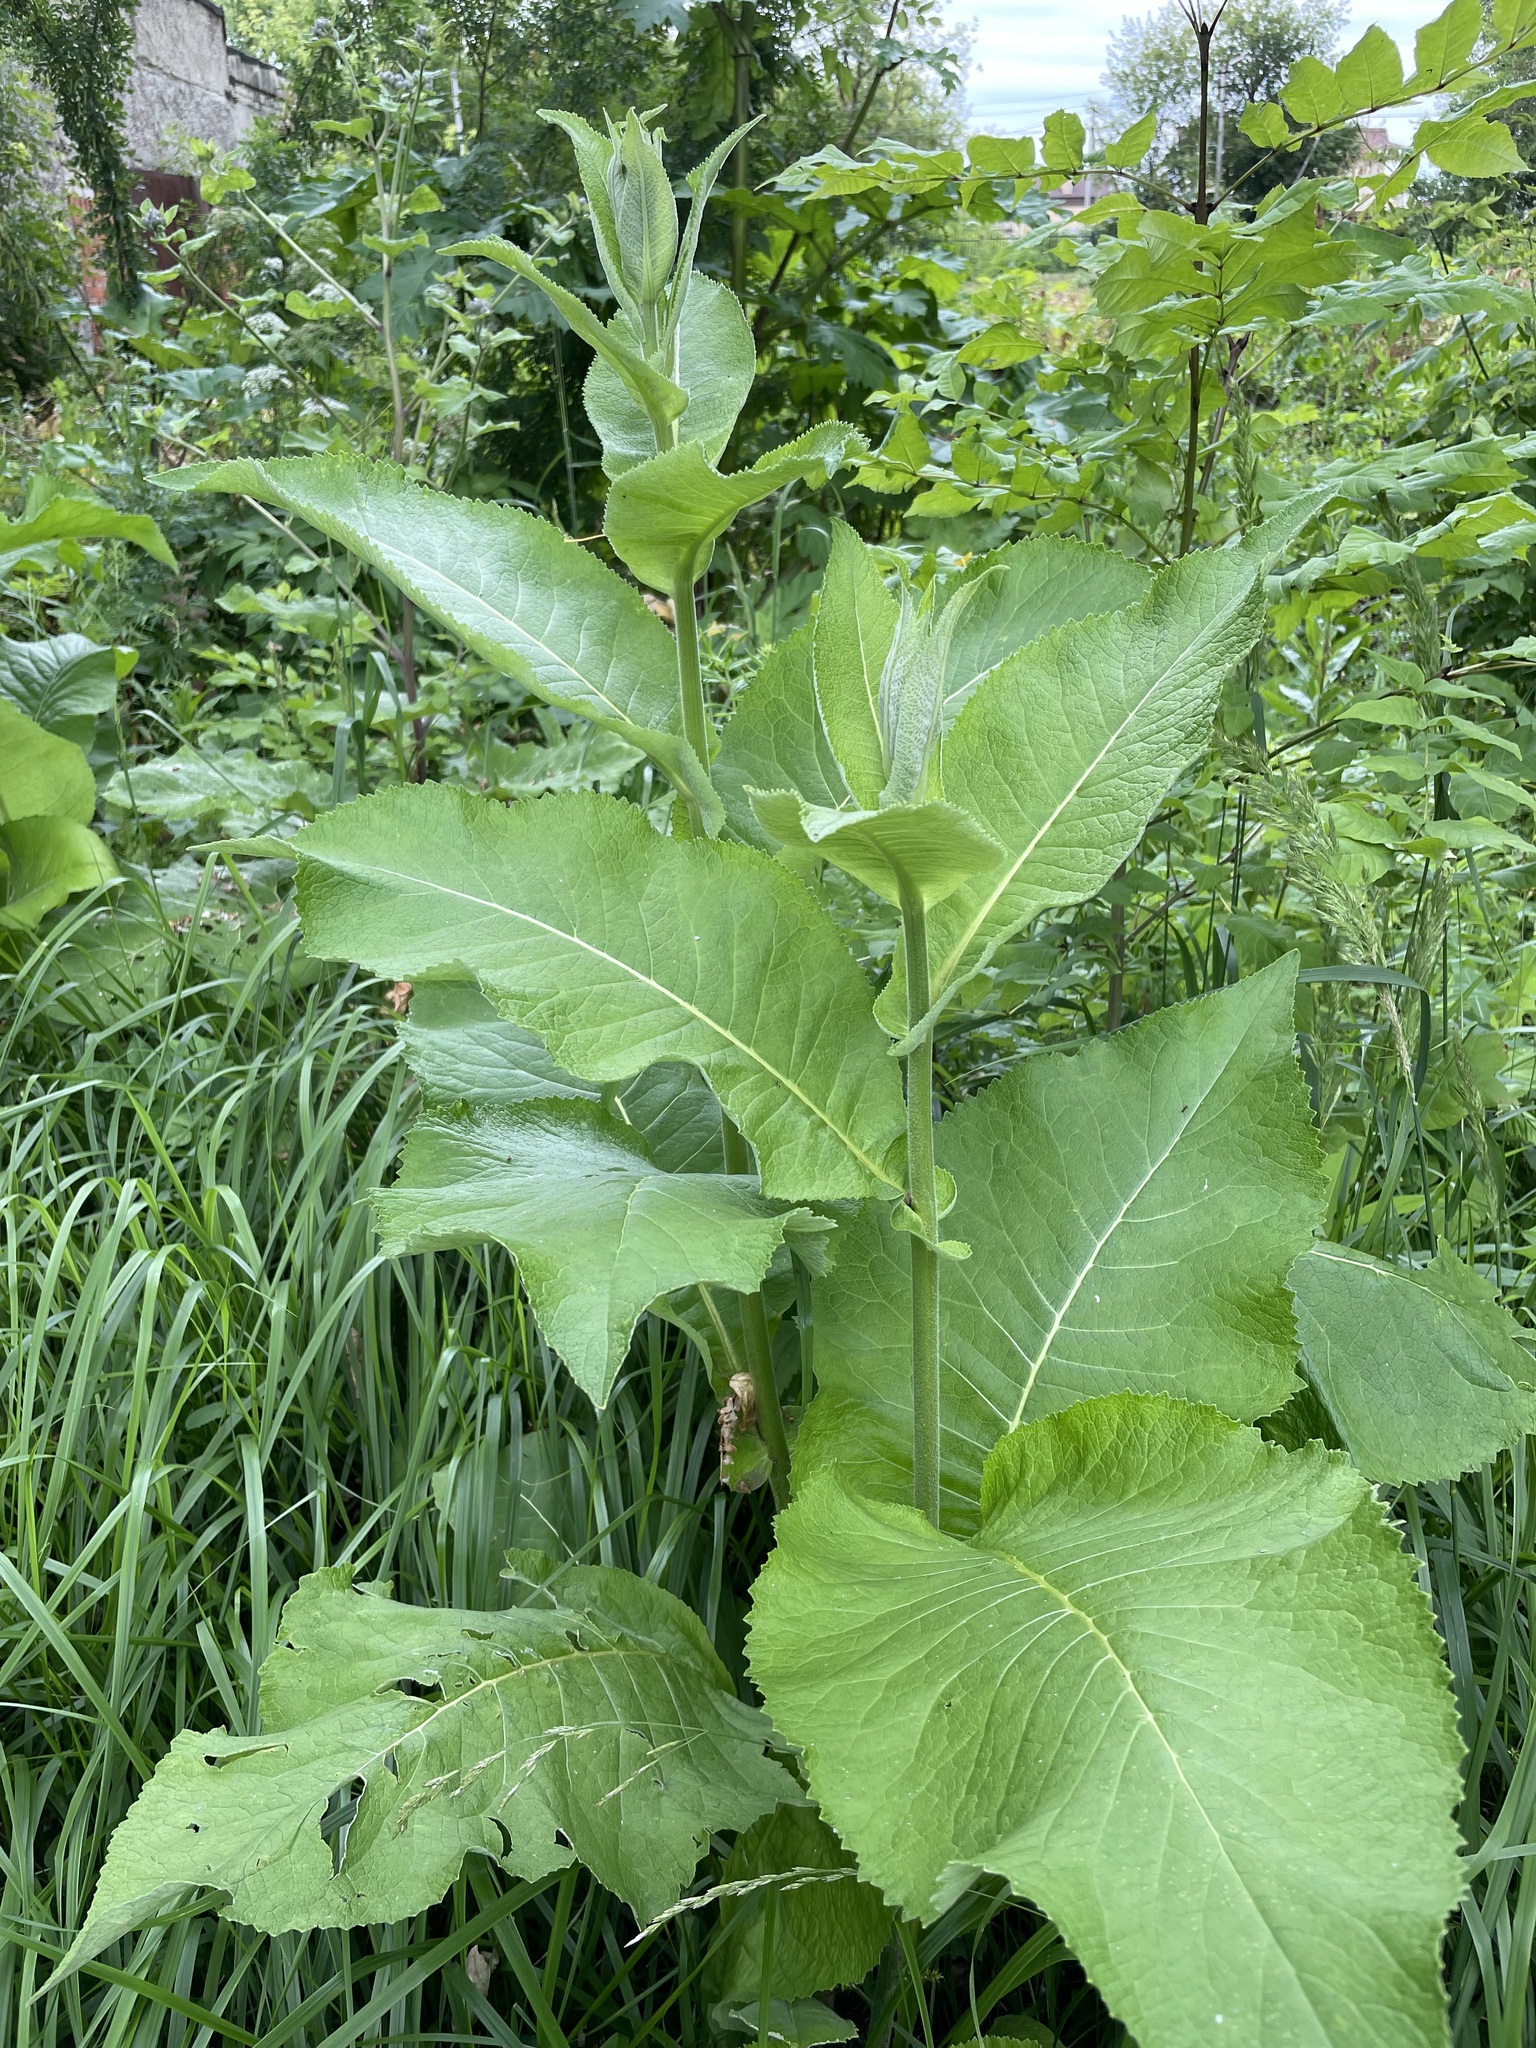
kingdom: Plantae
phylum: Tracheophyta
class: Magnoliopsida
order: Asterales
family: Asteraceae
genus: Inula
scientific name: Inula helenium
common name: Elecampane
